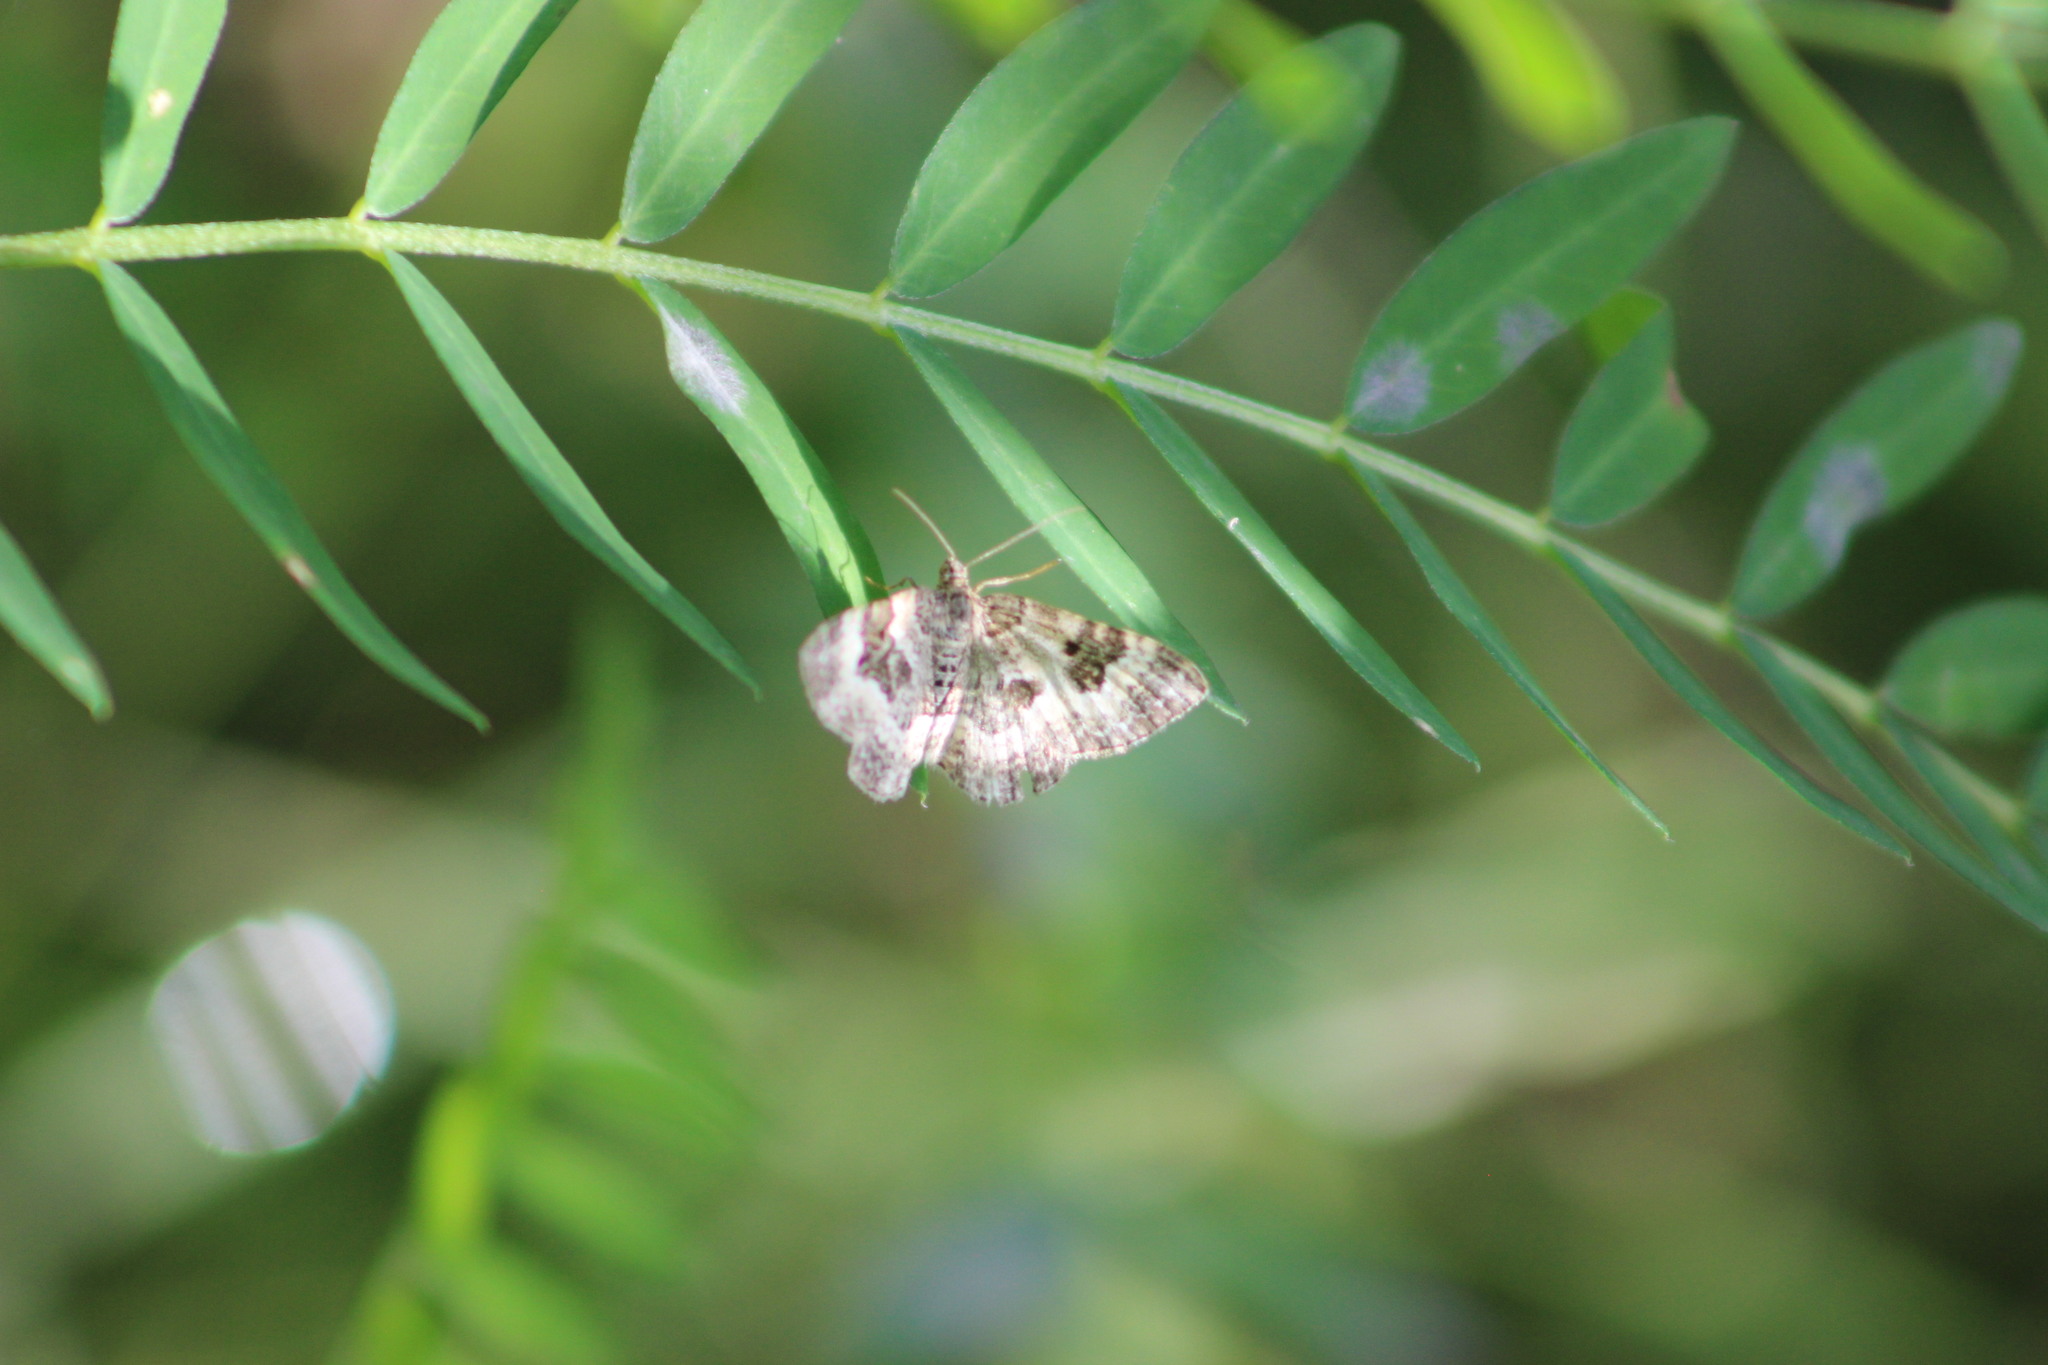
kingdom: Animalia
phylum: Arthropoda
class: Insecta
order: Lepidoptera
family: Geometridae
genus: Epirrhoe
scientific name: Epirrhoe alternata
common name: Common carpet
